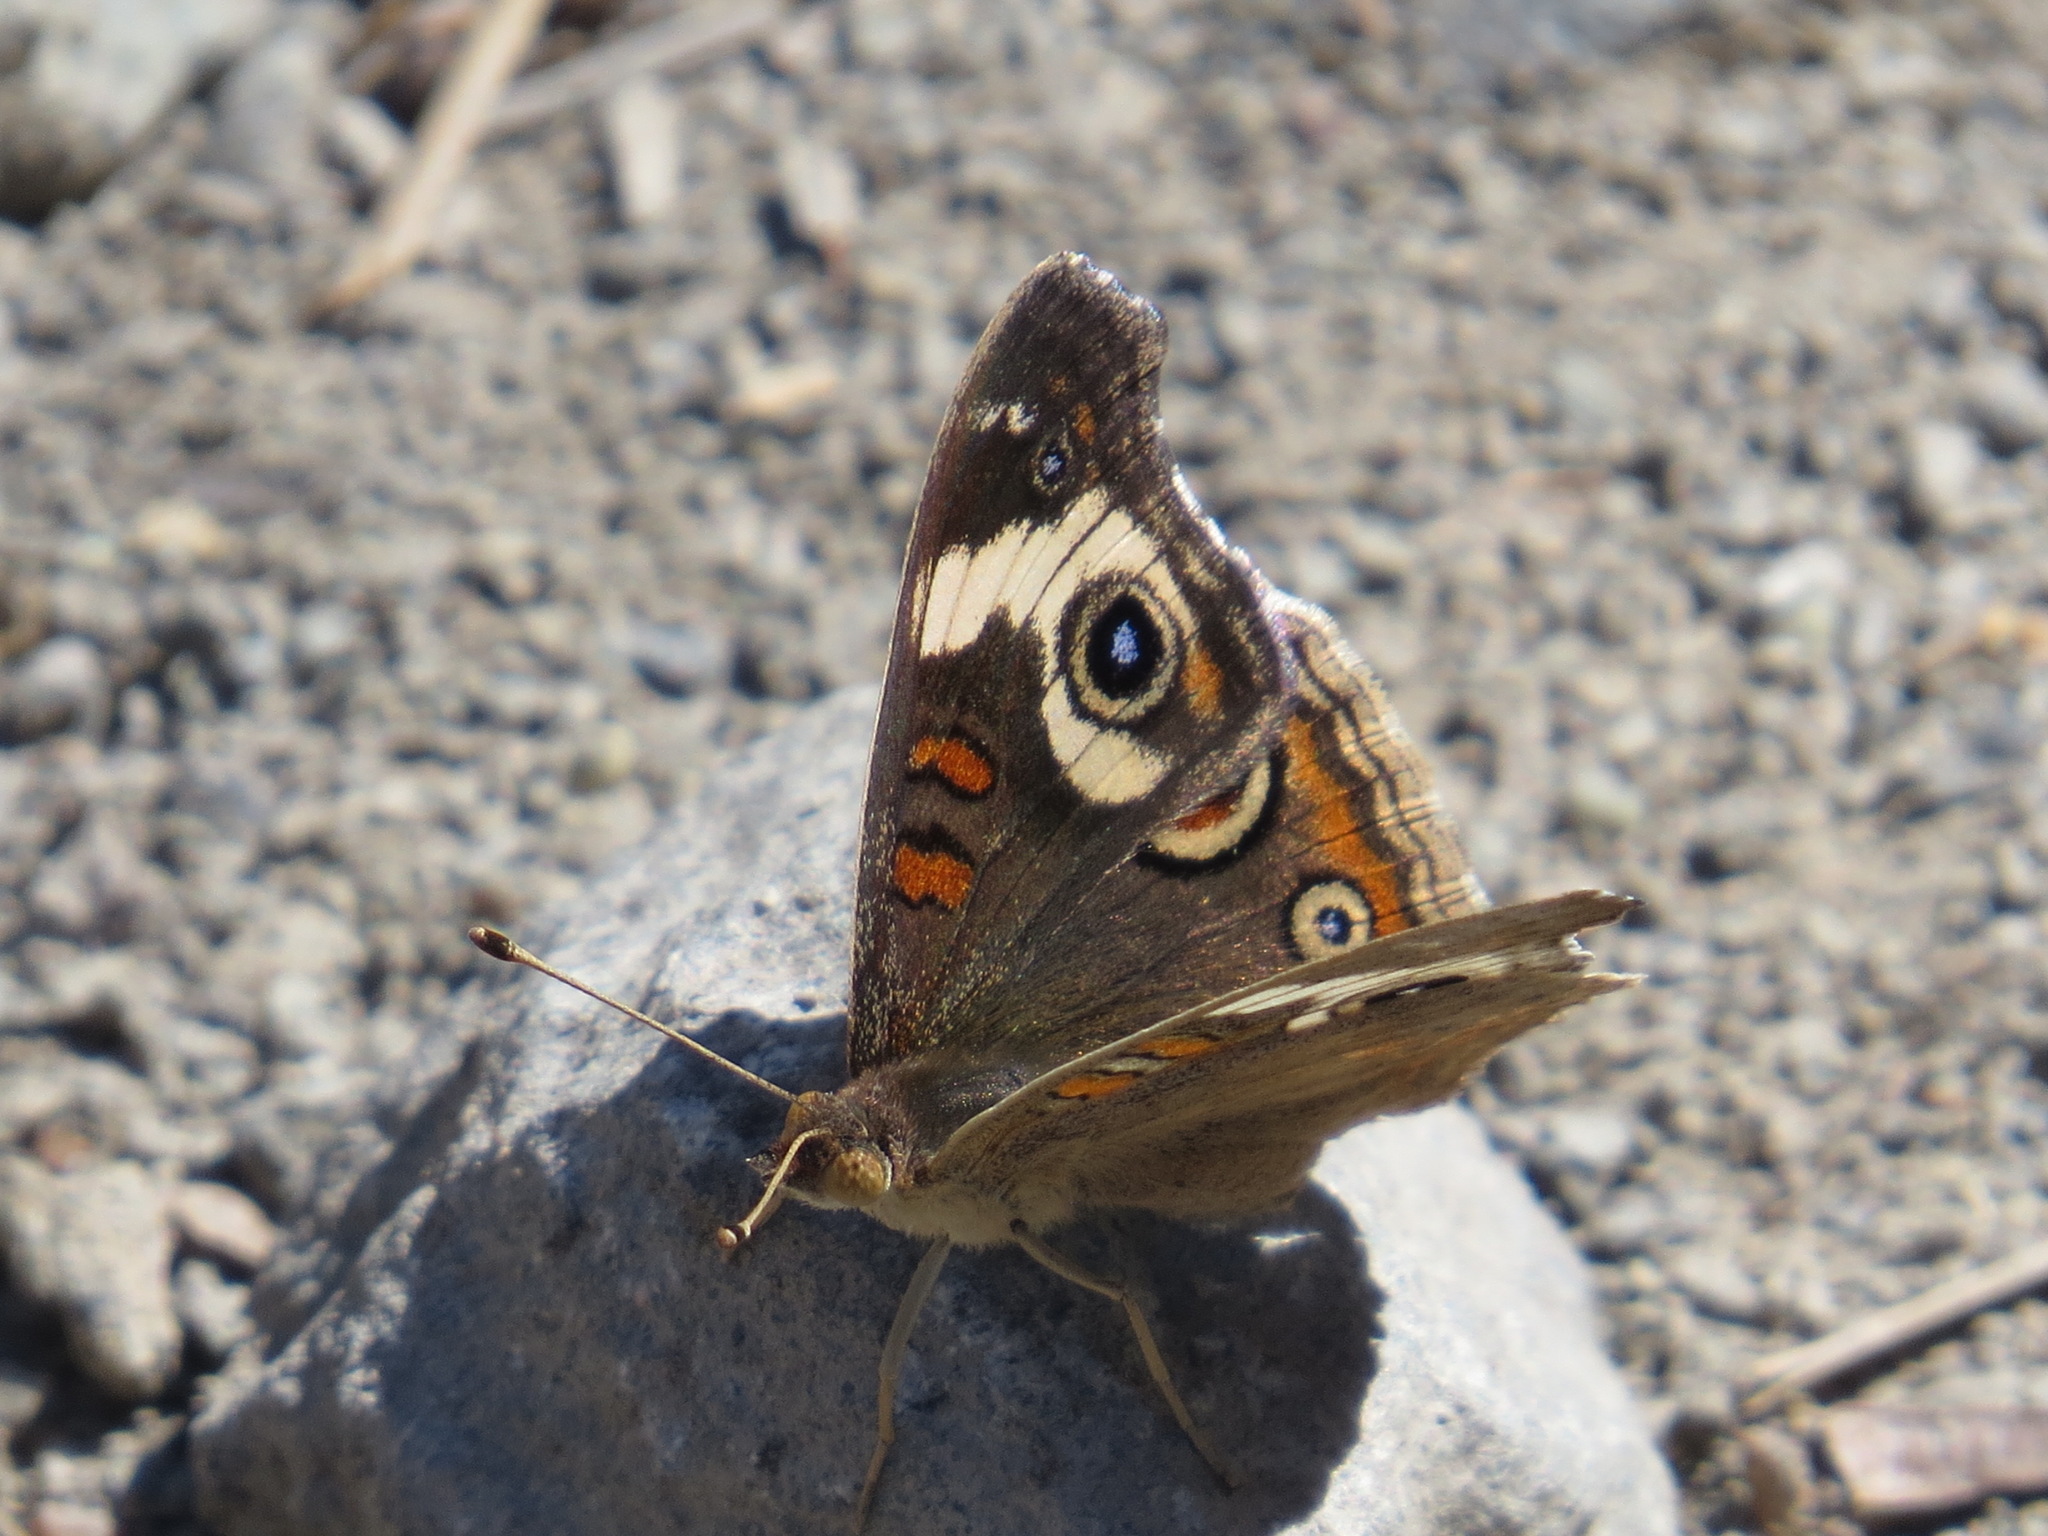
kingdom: Animalia
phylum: Arthropoda
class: Insecta
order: Lepidoptera
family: Nymphalidae
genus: Junonia
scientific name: Junonia grisea
